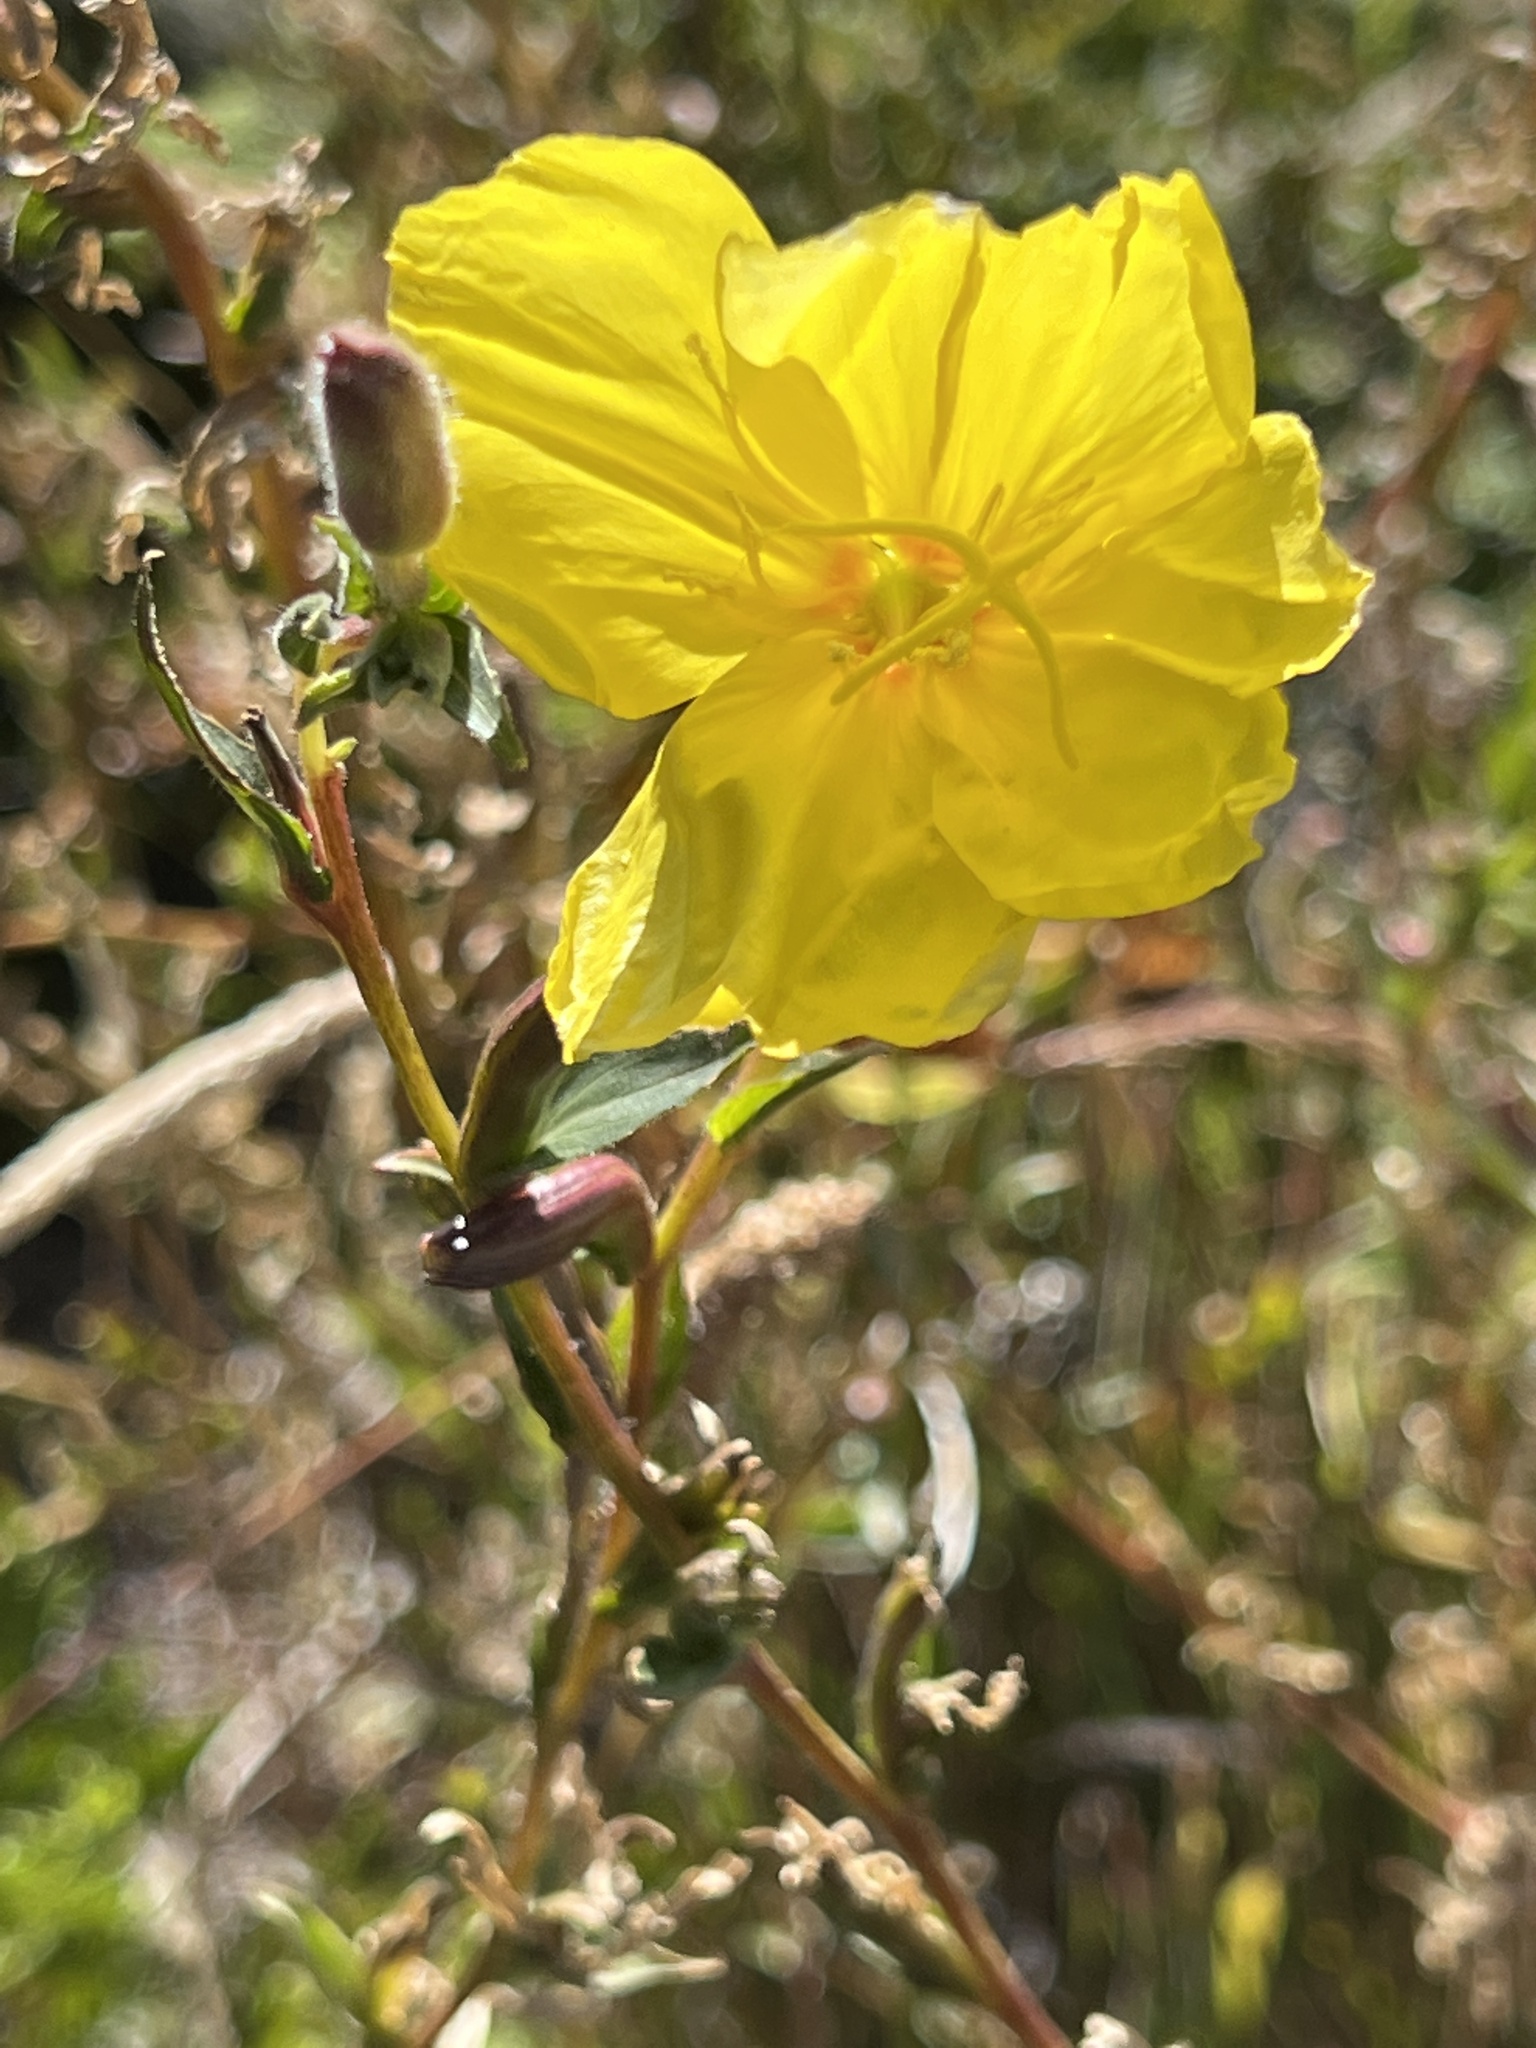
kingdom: Plantae
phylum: Tracheophyta
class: Magnoliopsida
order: Myrtales
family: Onagraceae
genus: Oenothera
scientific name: Oenothera stricta
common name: Fragrant evening-primrose
